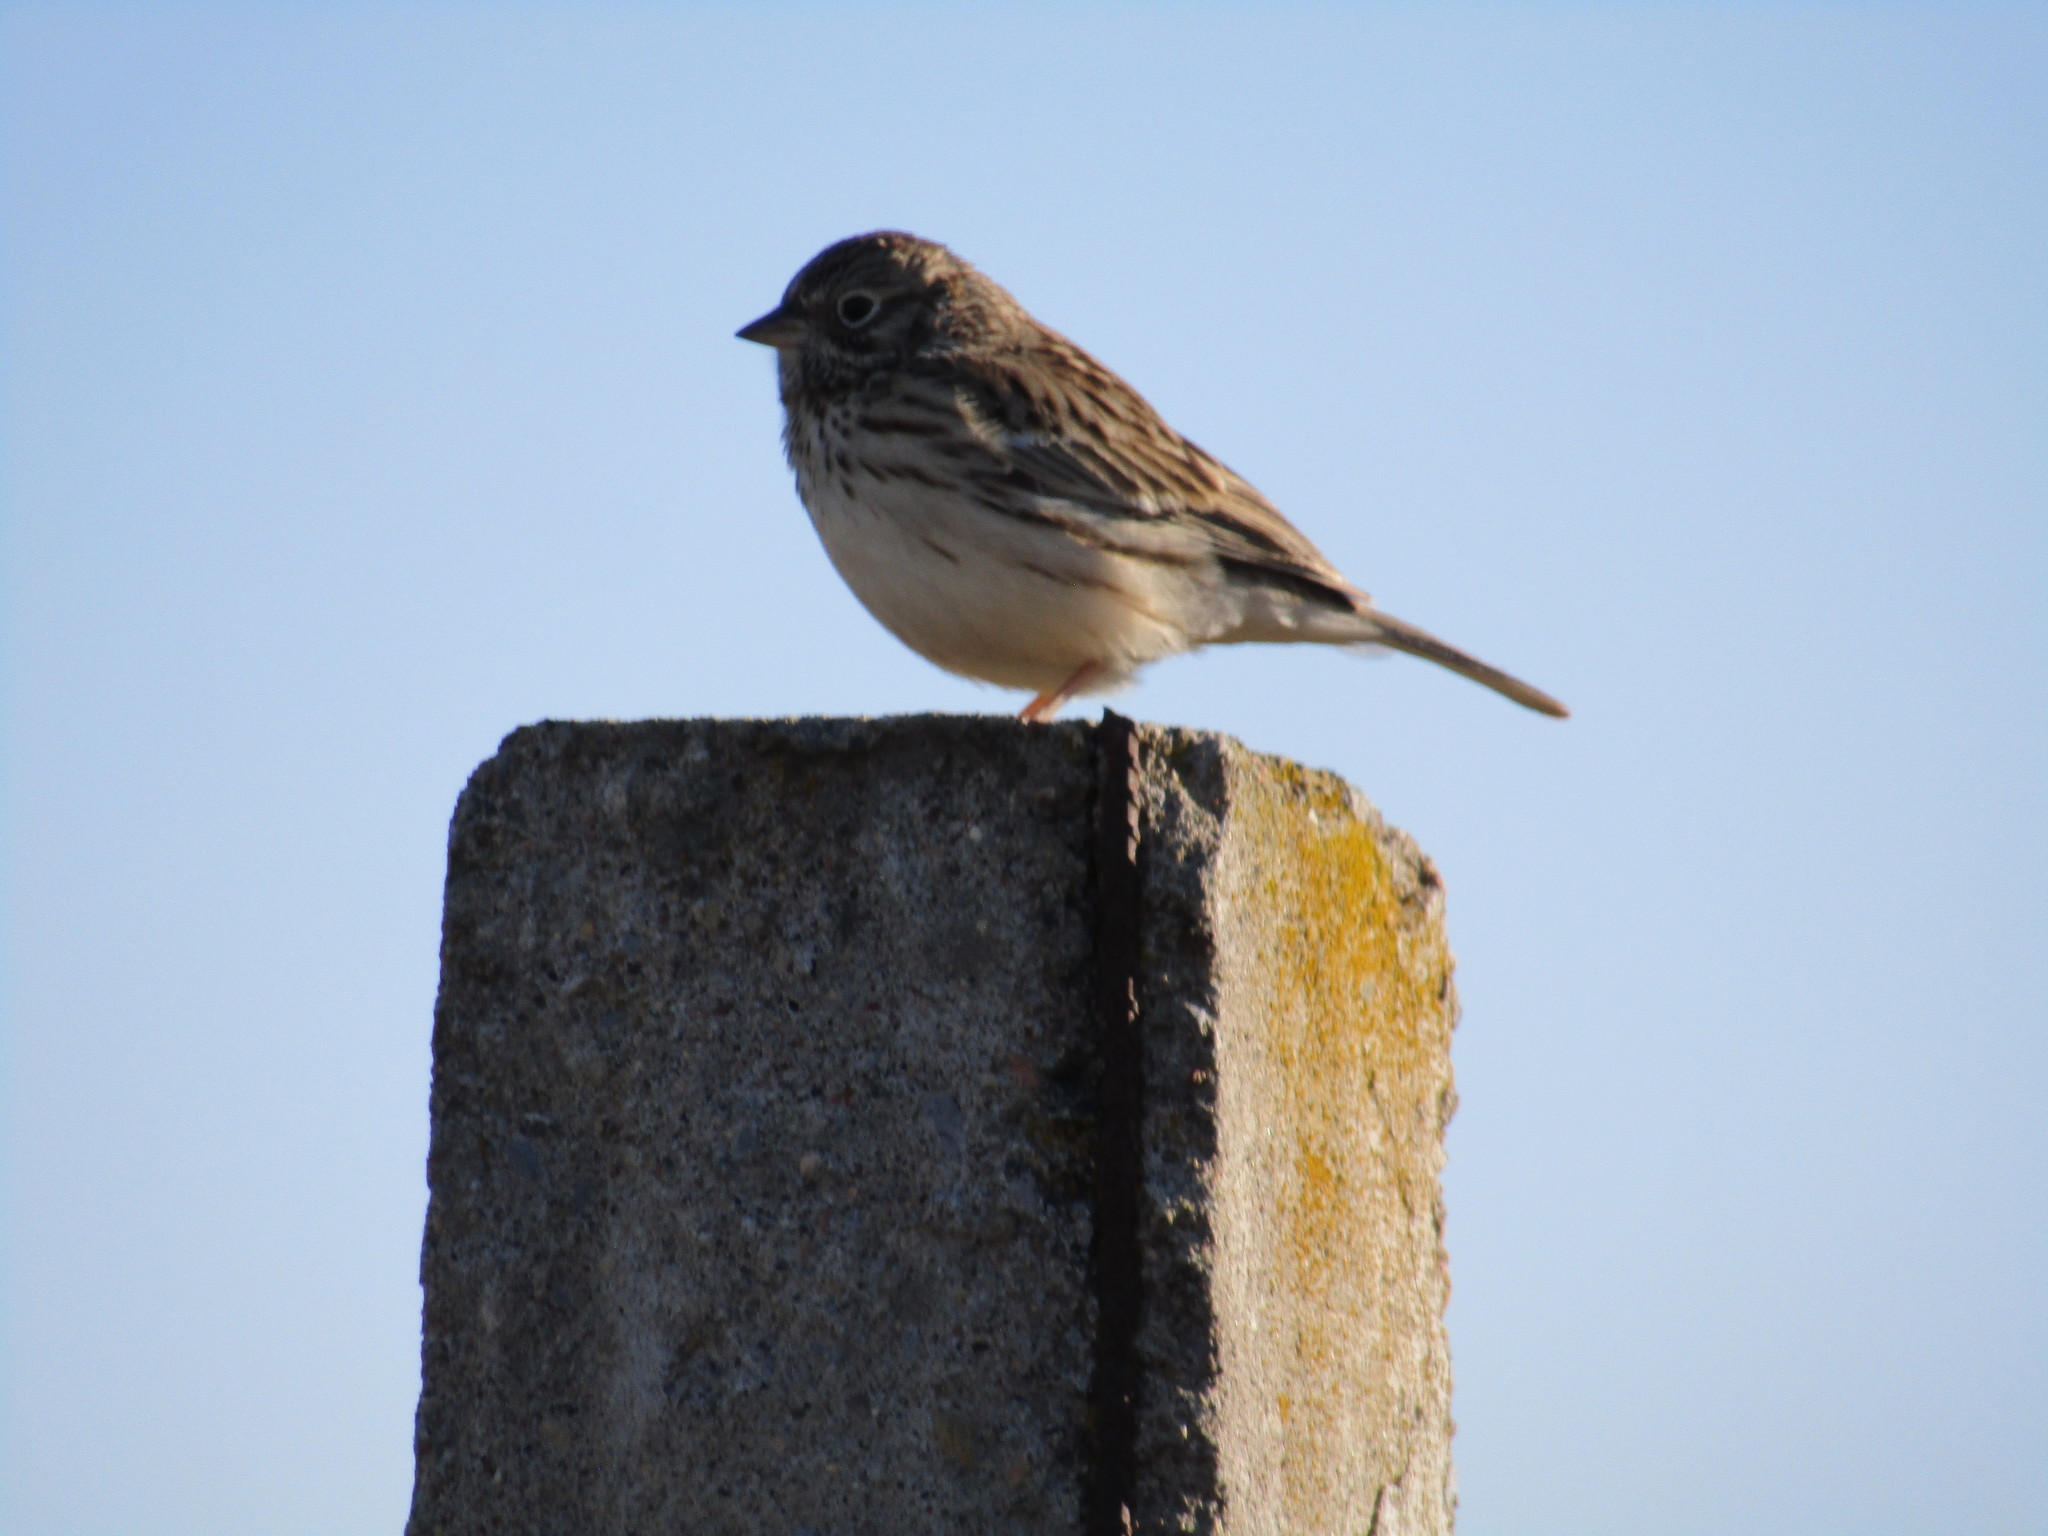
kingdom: Animalia
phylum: Chordata
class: Aves
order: Passeriformes
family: Passerellidae
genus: Pooecetes
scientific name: Pooecetes gramineus
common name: Vesper sparrow
